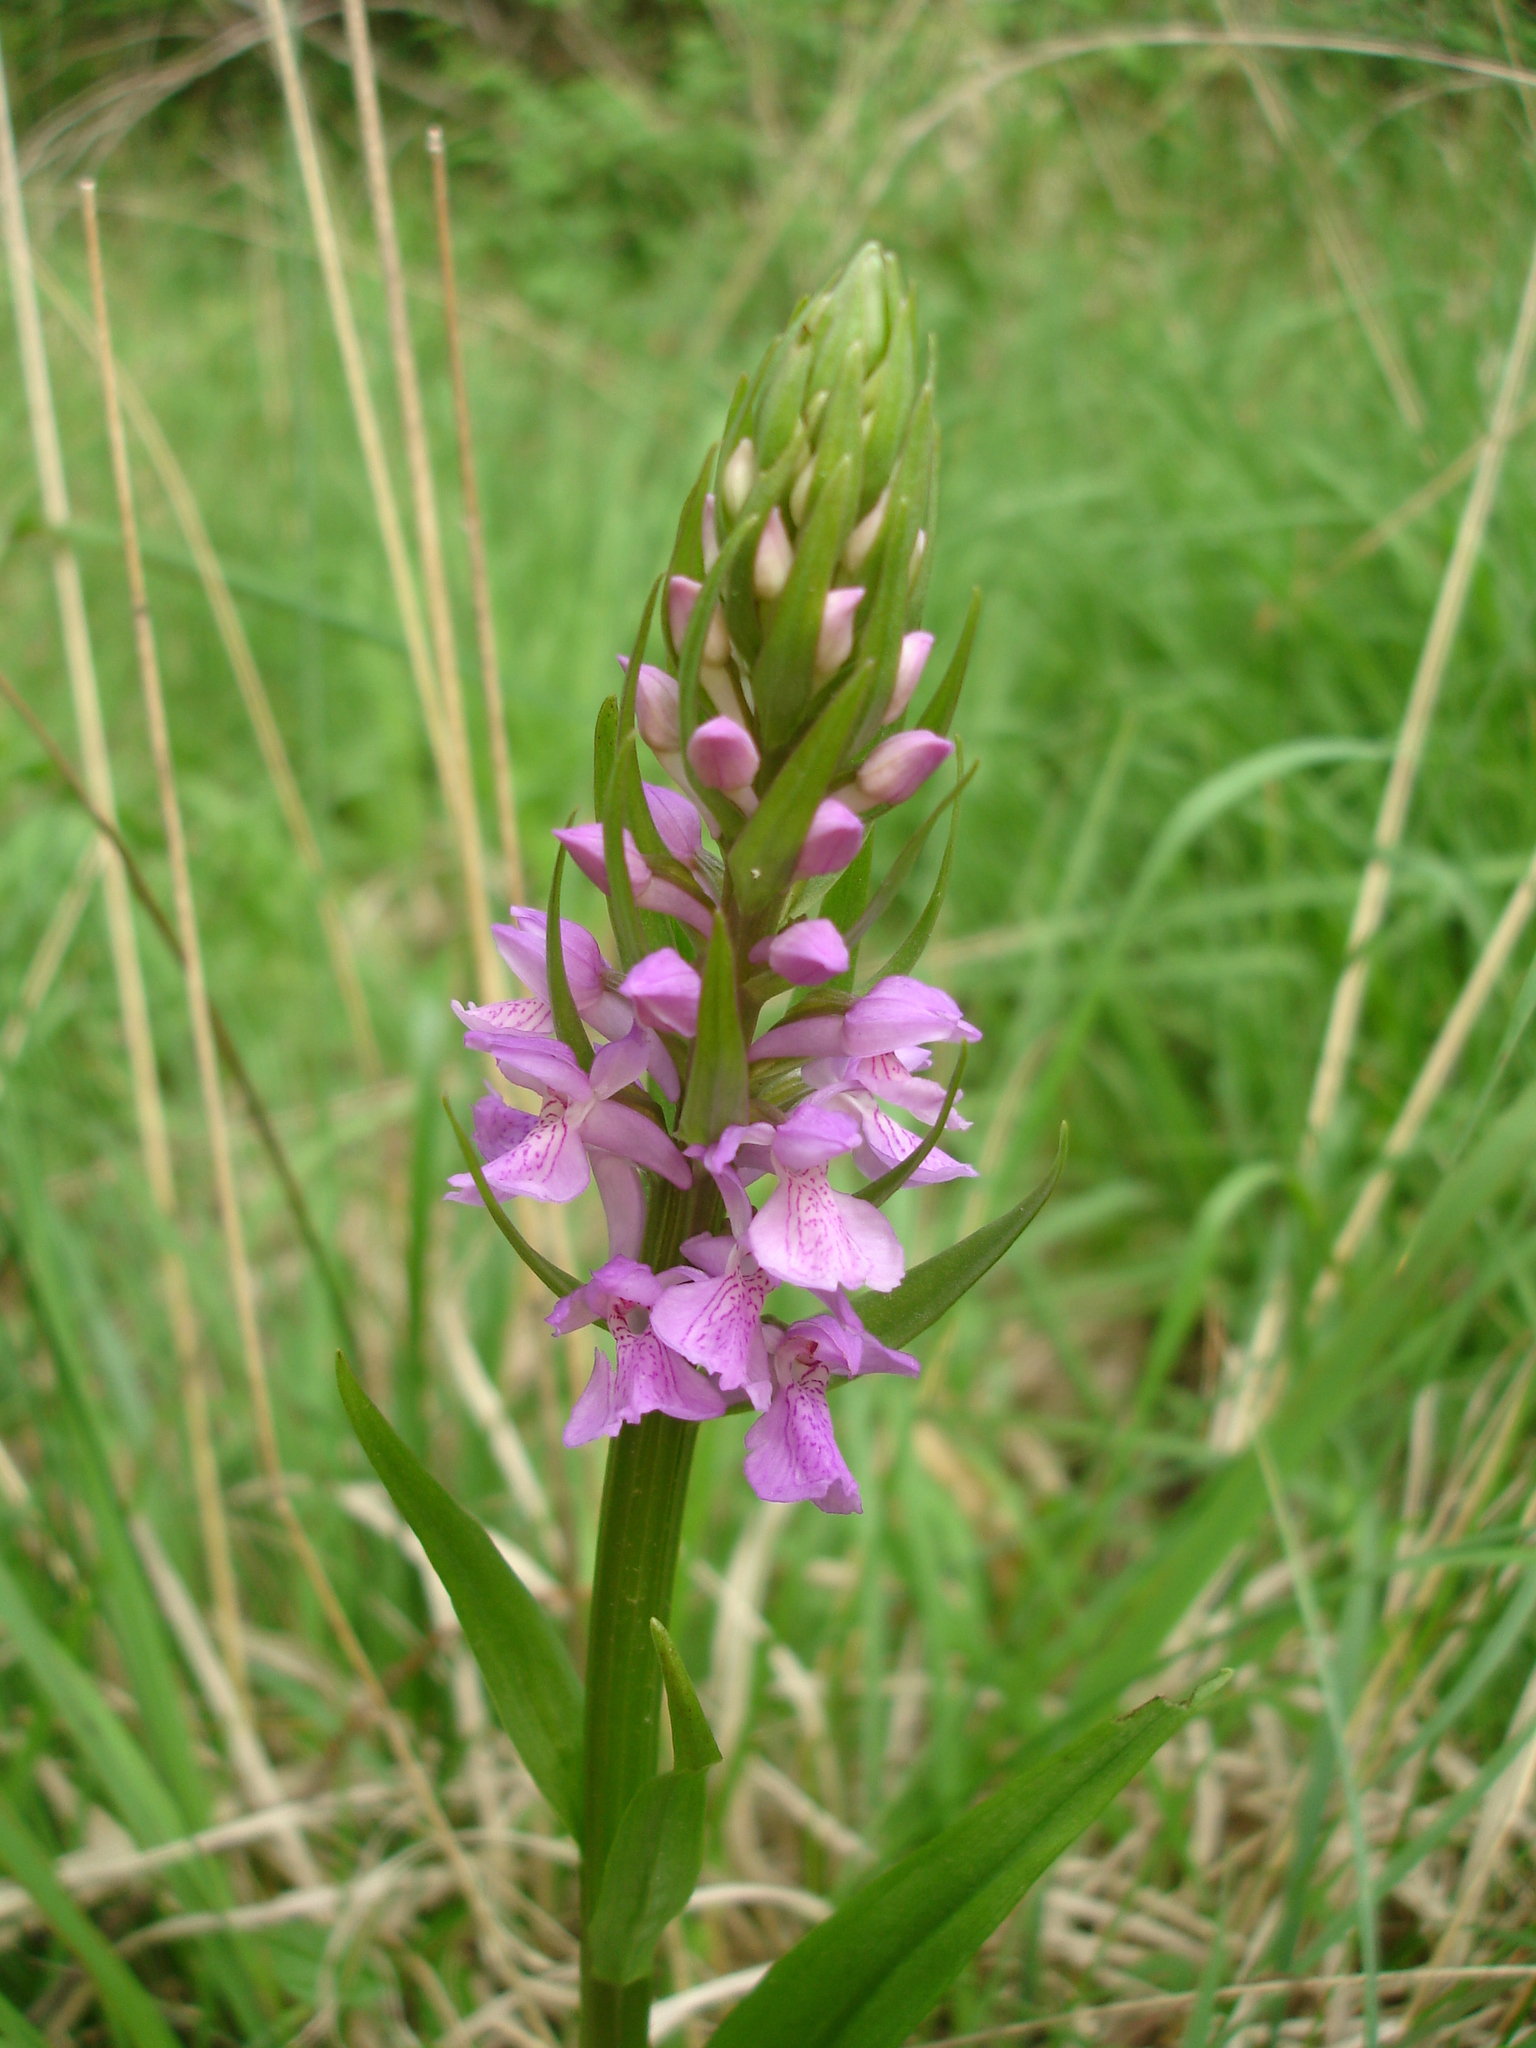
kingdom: Plantae
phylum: Tracheophyta
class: Liliopsida
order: Asparagales
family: Orchidaceae
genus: Dactylorhiza
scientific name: Dactylorhiza elata
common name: Stately dactylorhiza
